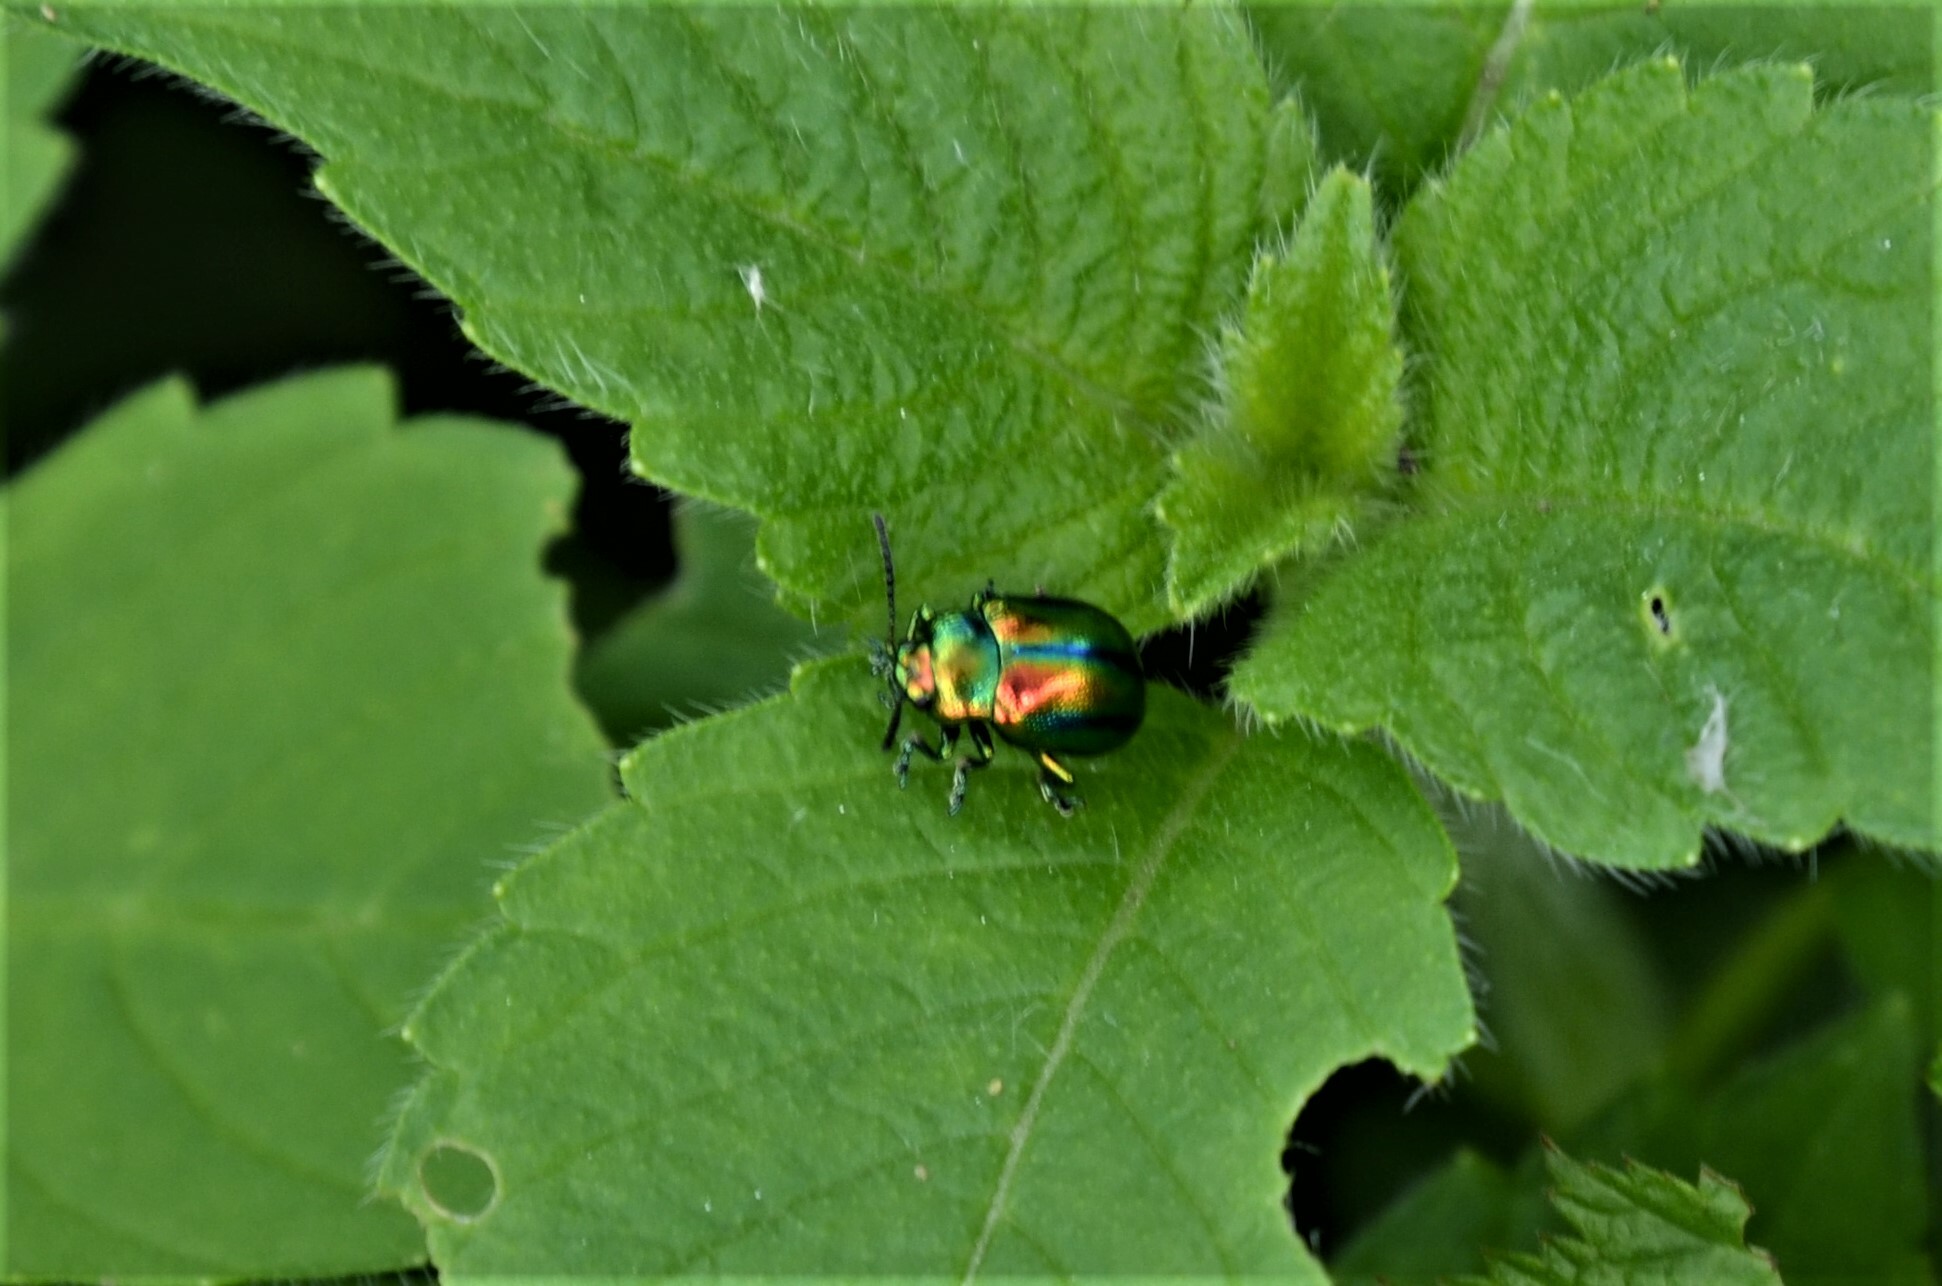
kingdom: Animalia
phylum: Arthropoda
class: Insecta
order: Coleoptera
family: Chrysomelidae
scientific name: Chrysomelidae
